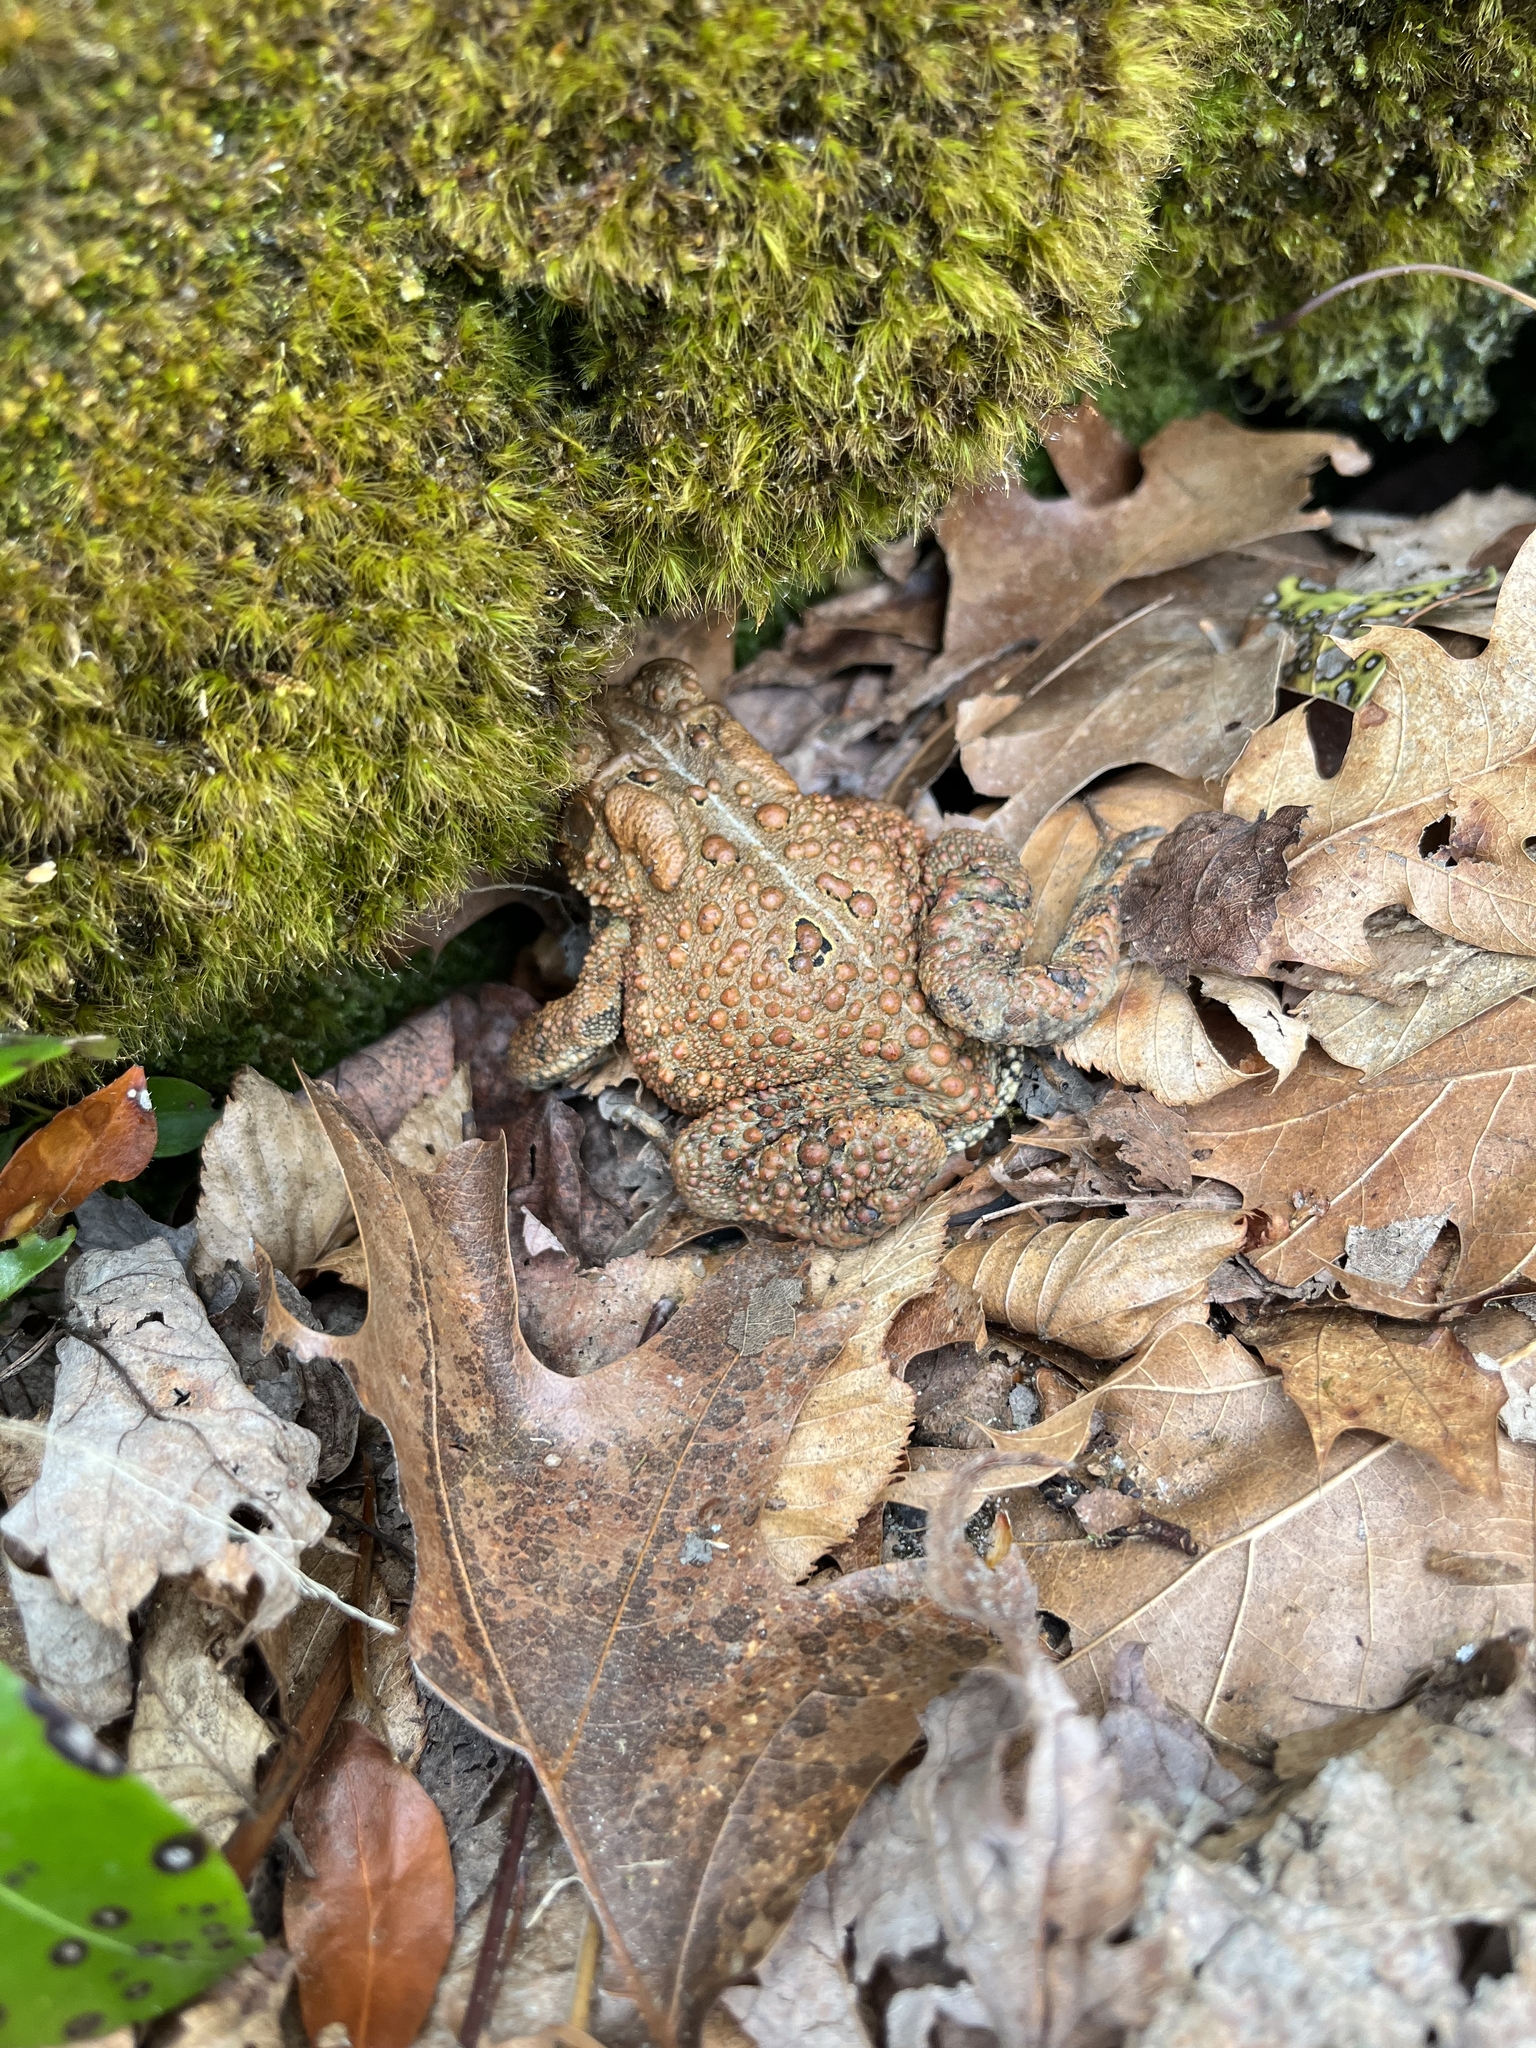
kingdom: Animalia
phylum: Chordata
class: Amphibia
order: Anura
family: Bufonidae
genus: Anaxyrus
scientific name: Anaxyrus americanus
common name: American toad
